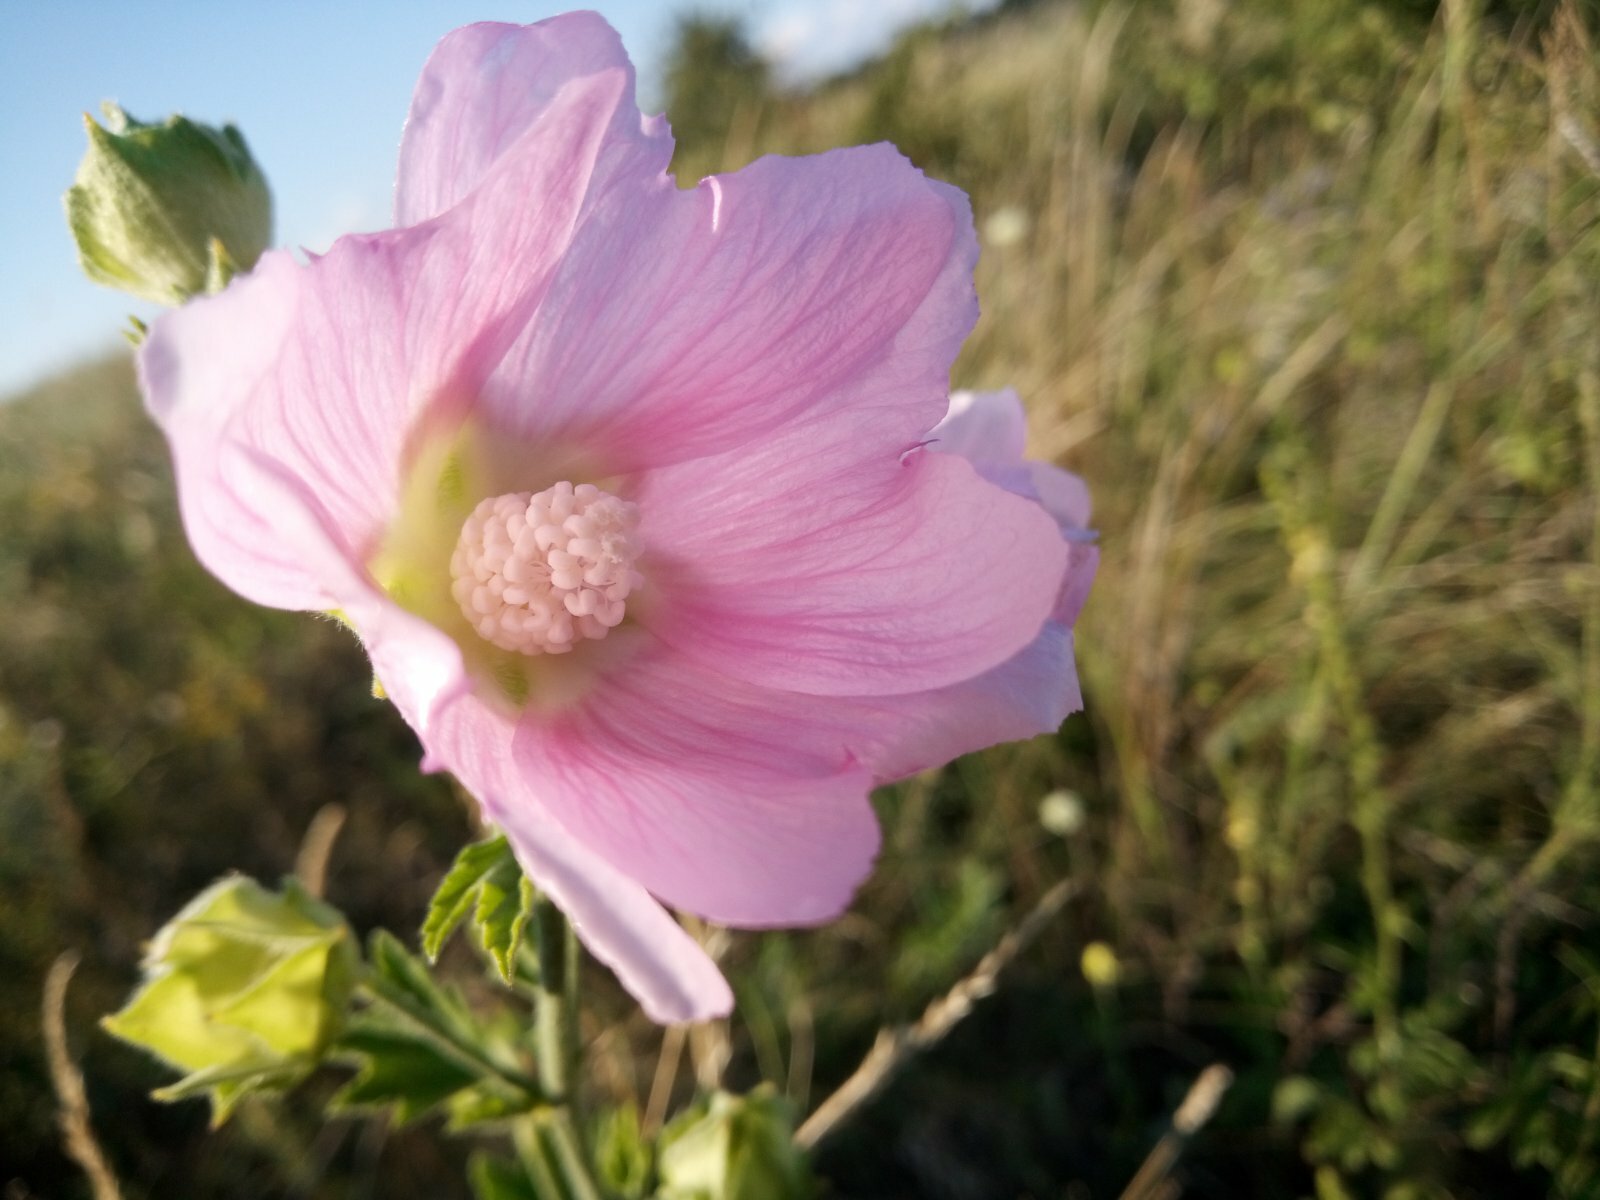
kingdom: Plantae
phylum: Tracheophyta
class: Magnoliopsida
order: Malvales
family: Malvaceae
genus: Malva
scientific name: Malva thuringiaca
